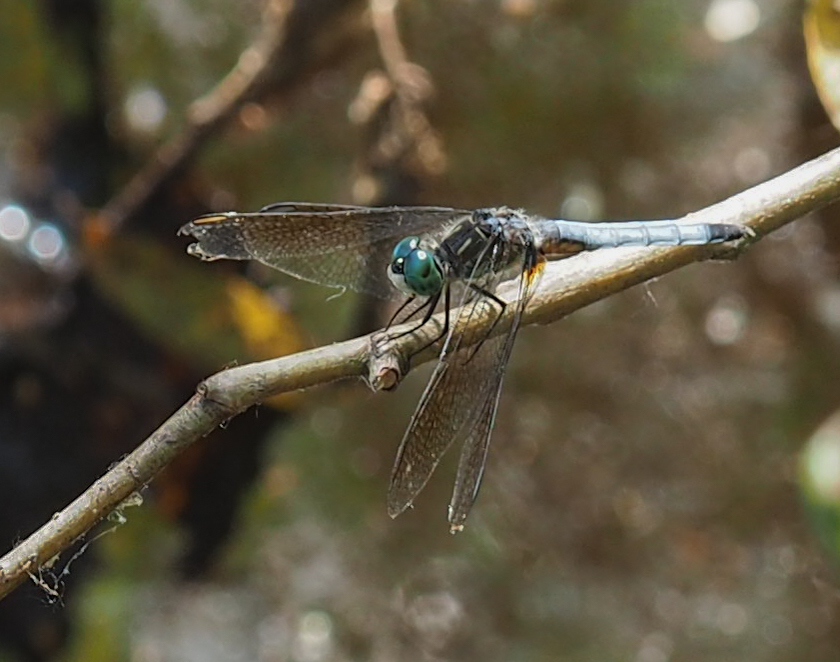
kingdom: Animalia
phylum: Arthropoda
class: Insecta
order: Odonata
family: Libellulidae
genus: Pachydiplax
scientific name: Pachydiplax longipennis
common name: Blue dasher
